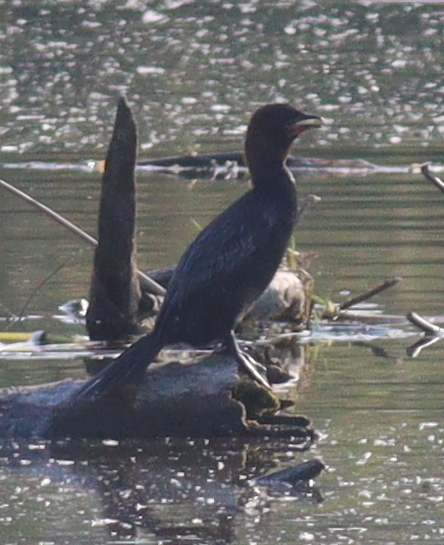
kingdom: Animalia
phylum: Chordata
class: Aves
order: Suliformes
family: Phalacrocoracidae
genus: Microcarbo
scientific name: Microcarbo pygmaeus
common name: Pygmy cormorant
